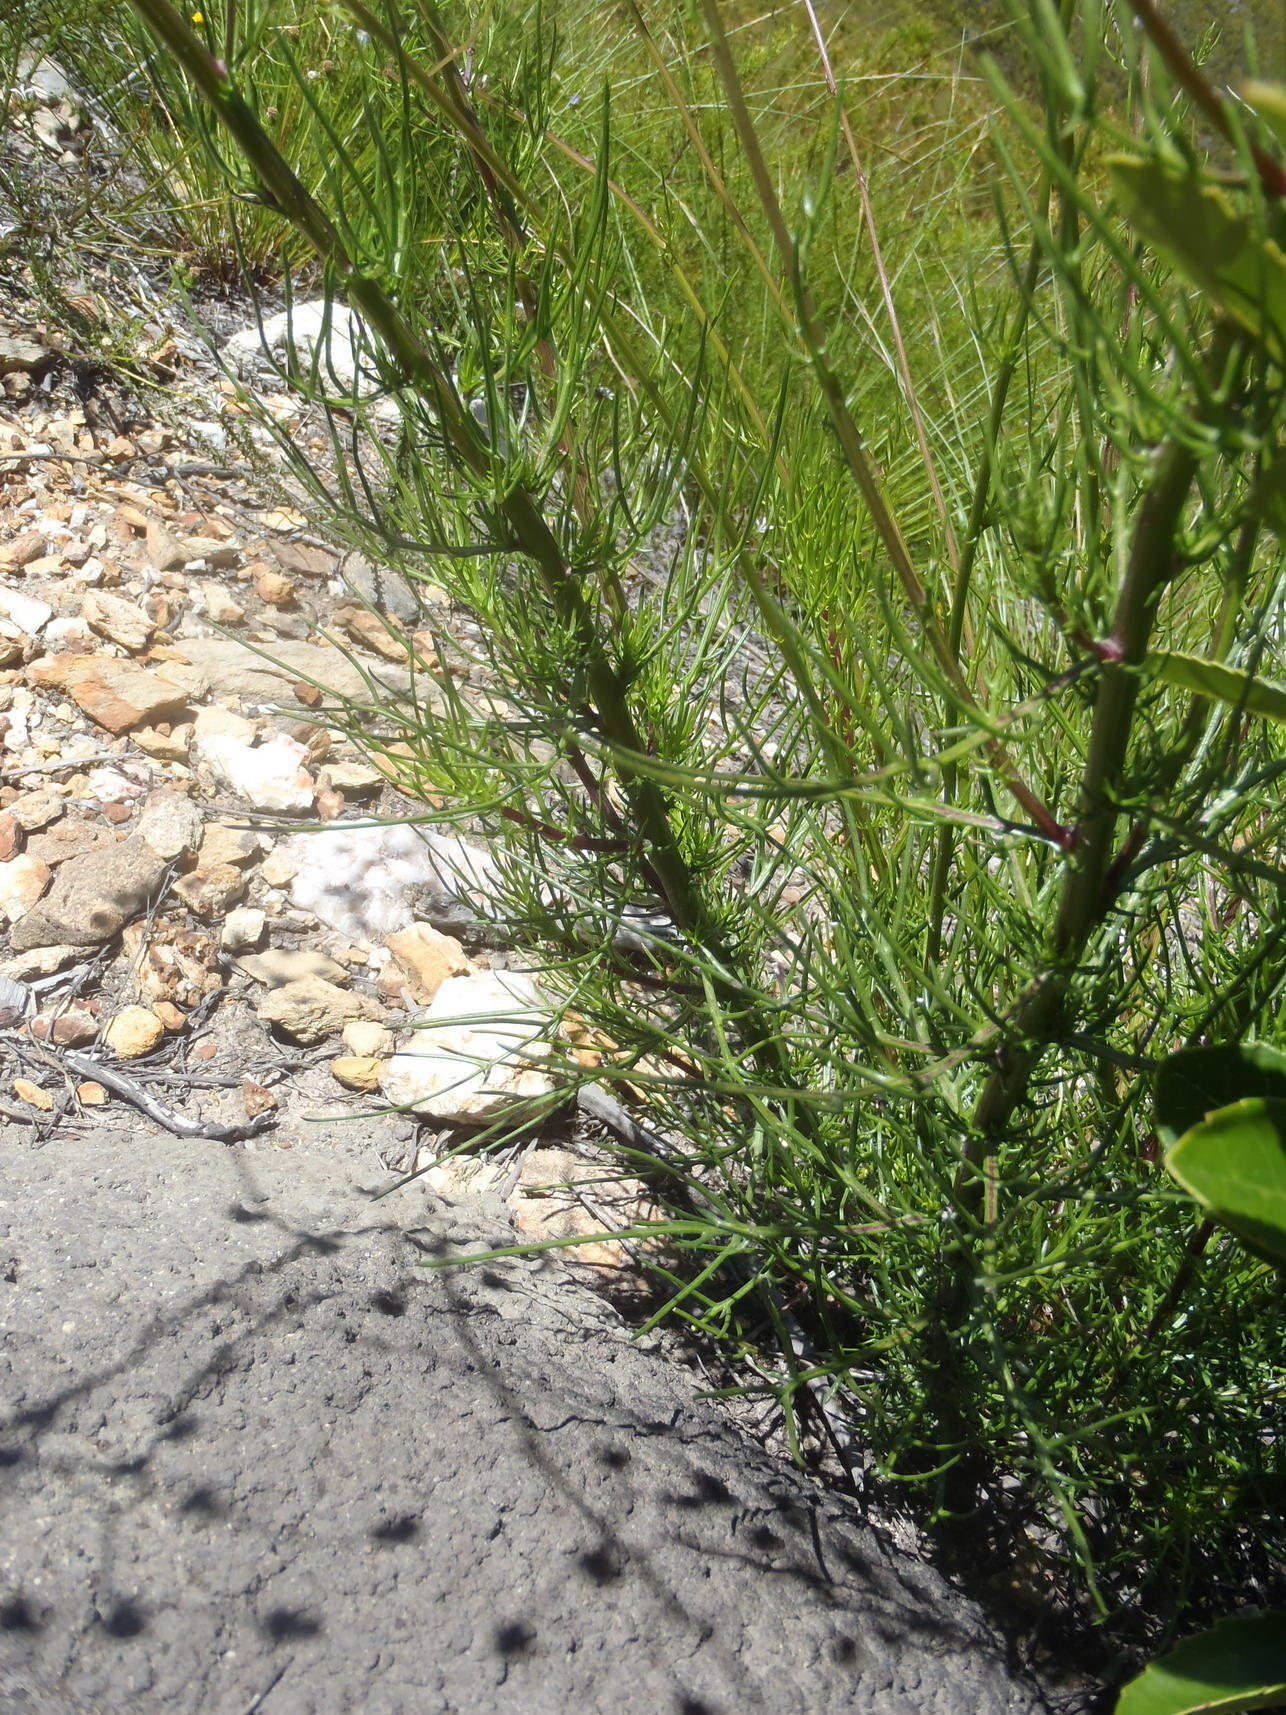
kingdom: Plantae
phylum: Tracheophyta
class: Magnoliopsida
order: Asterales
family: Asteraceae
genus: Senecio
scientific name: Senecio paniculatus
